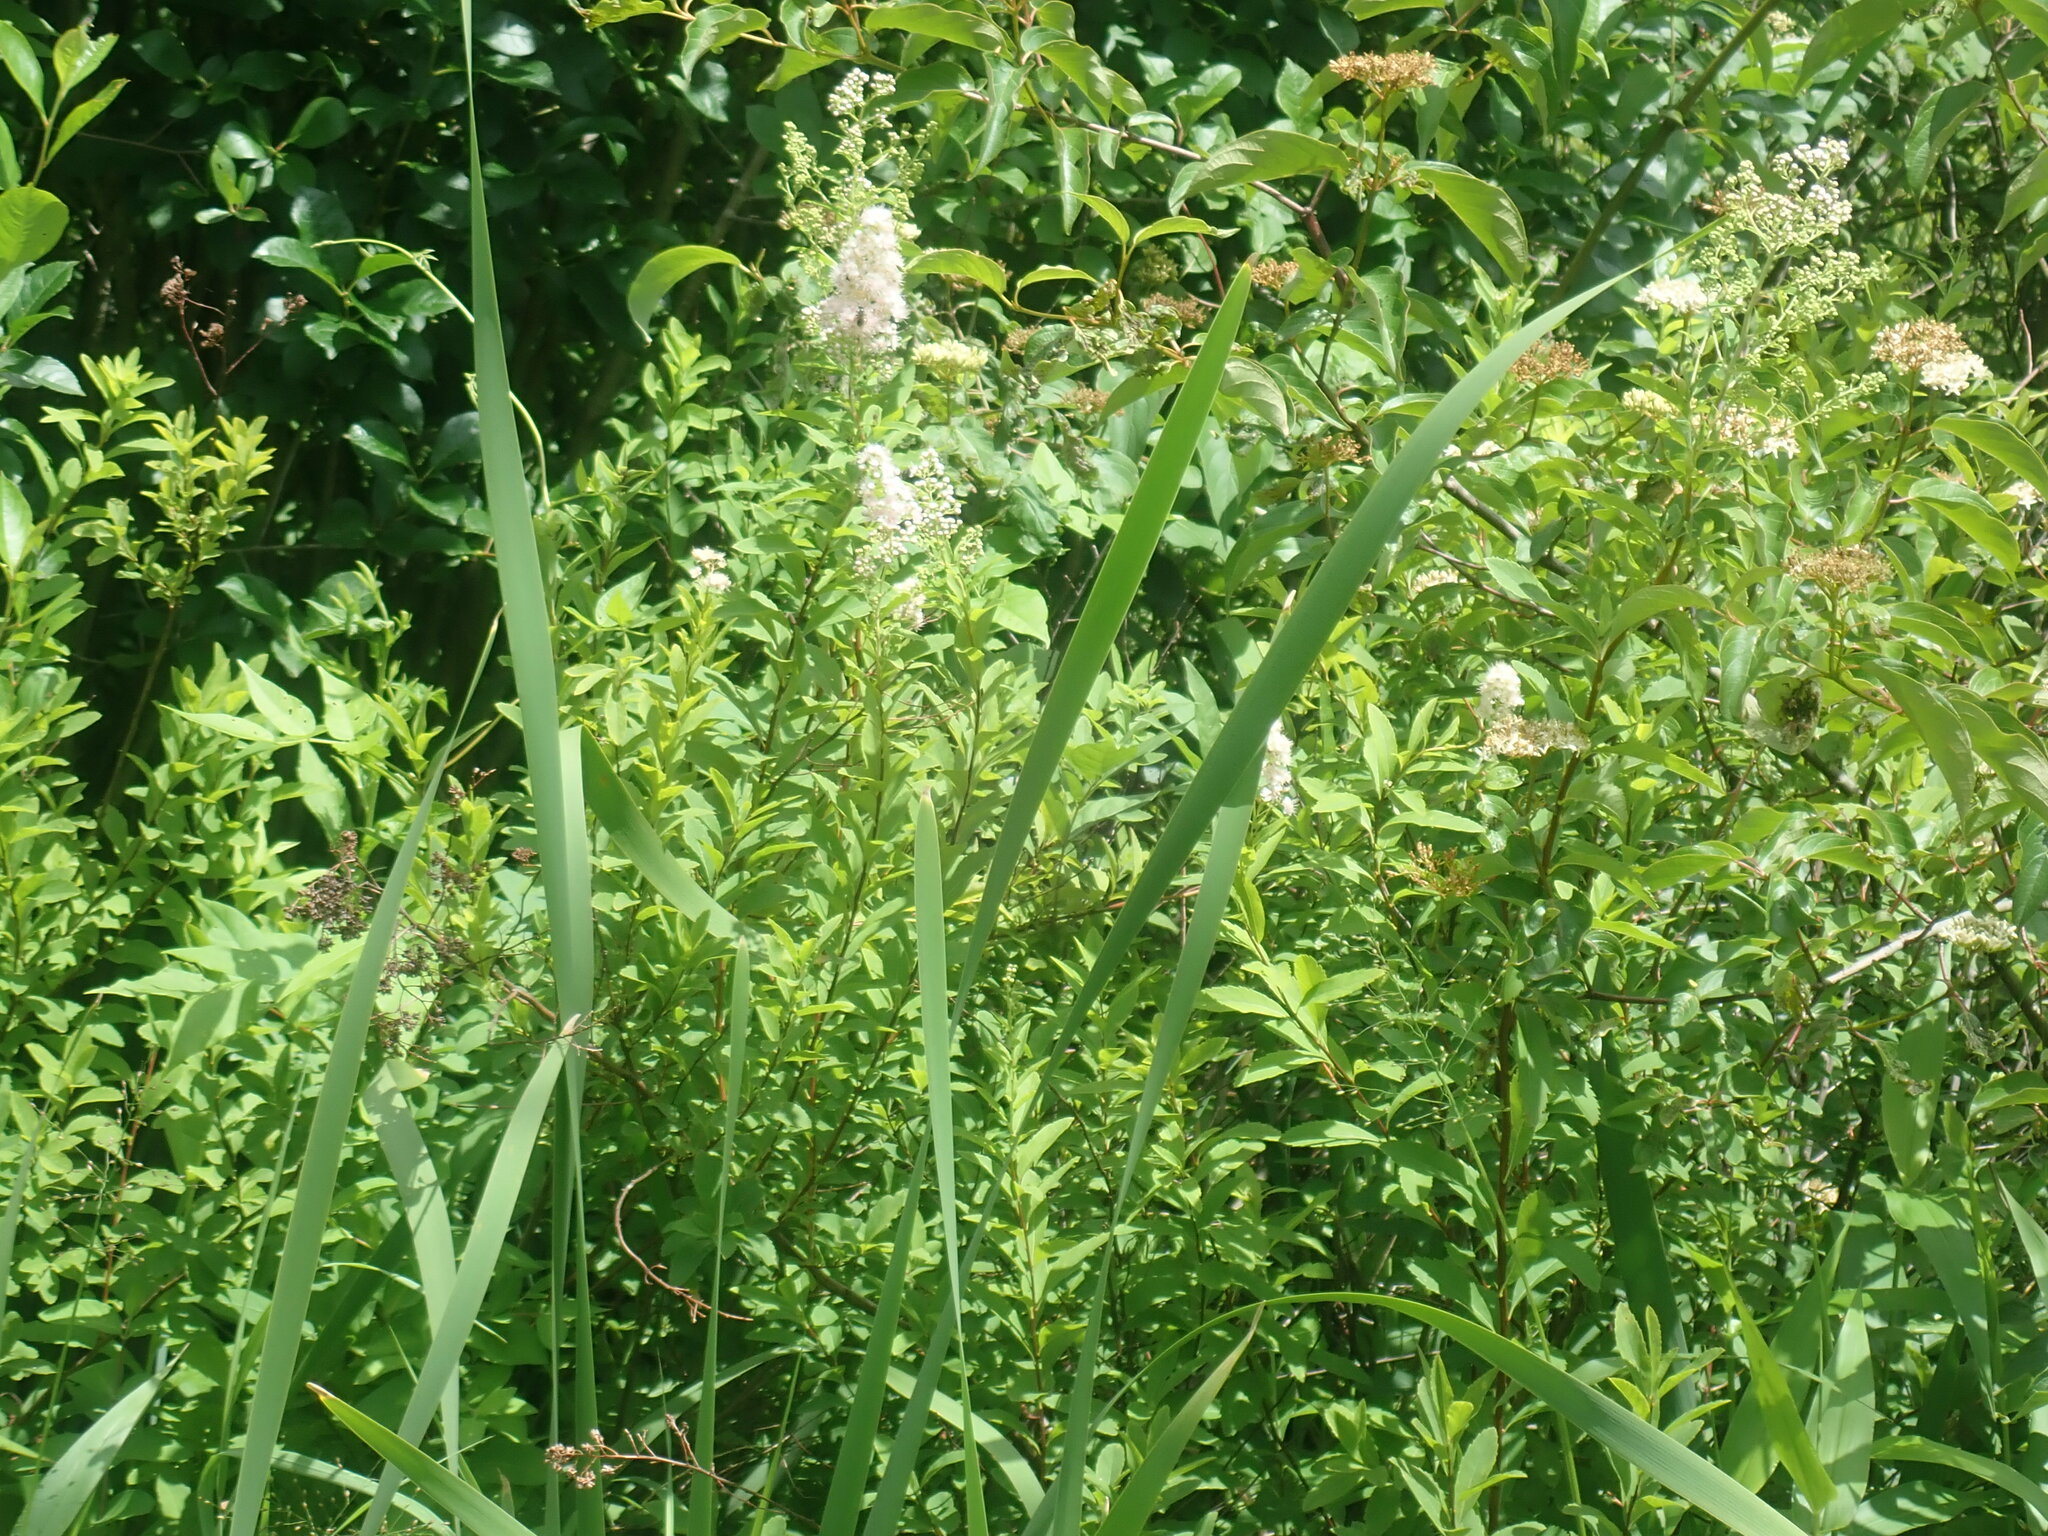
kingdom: Plantae
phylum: Tracheophyta
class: Magnoliopsida
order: Rosales
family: Rosaceae
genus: Spiraea
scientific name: Spiraea alba
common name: Pale bridewort
